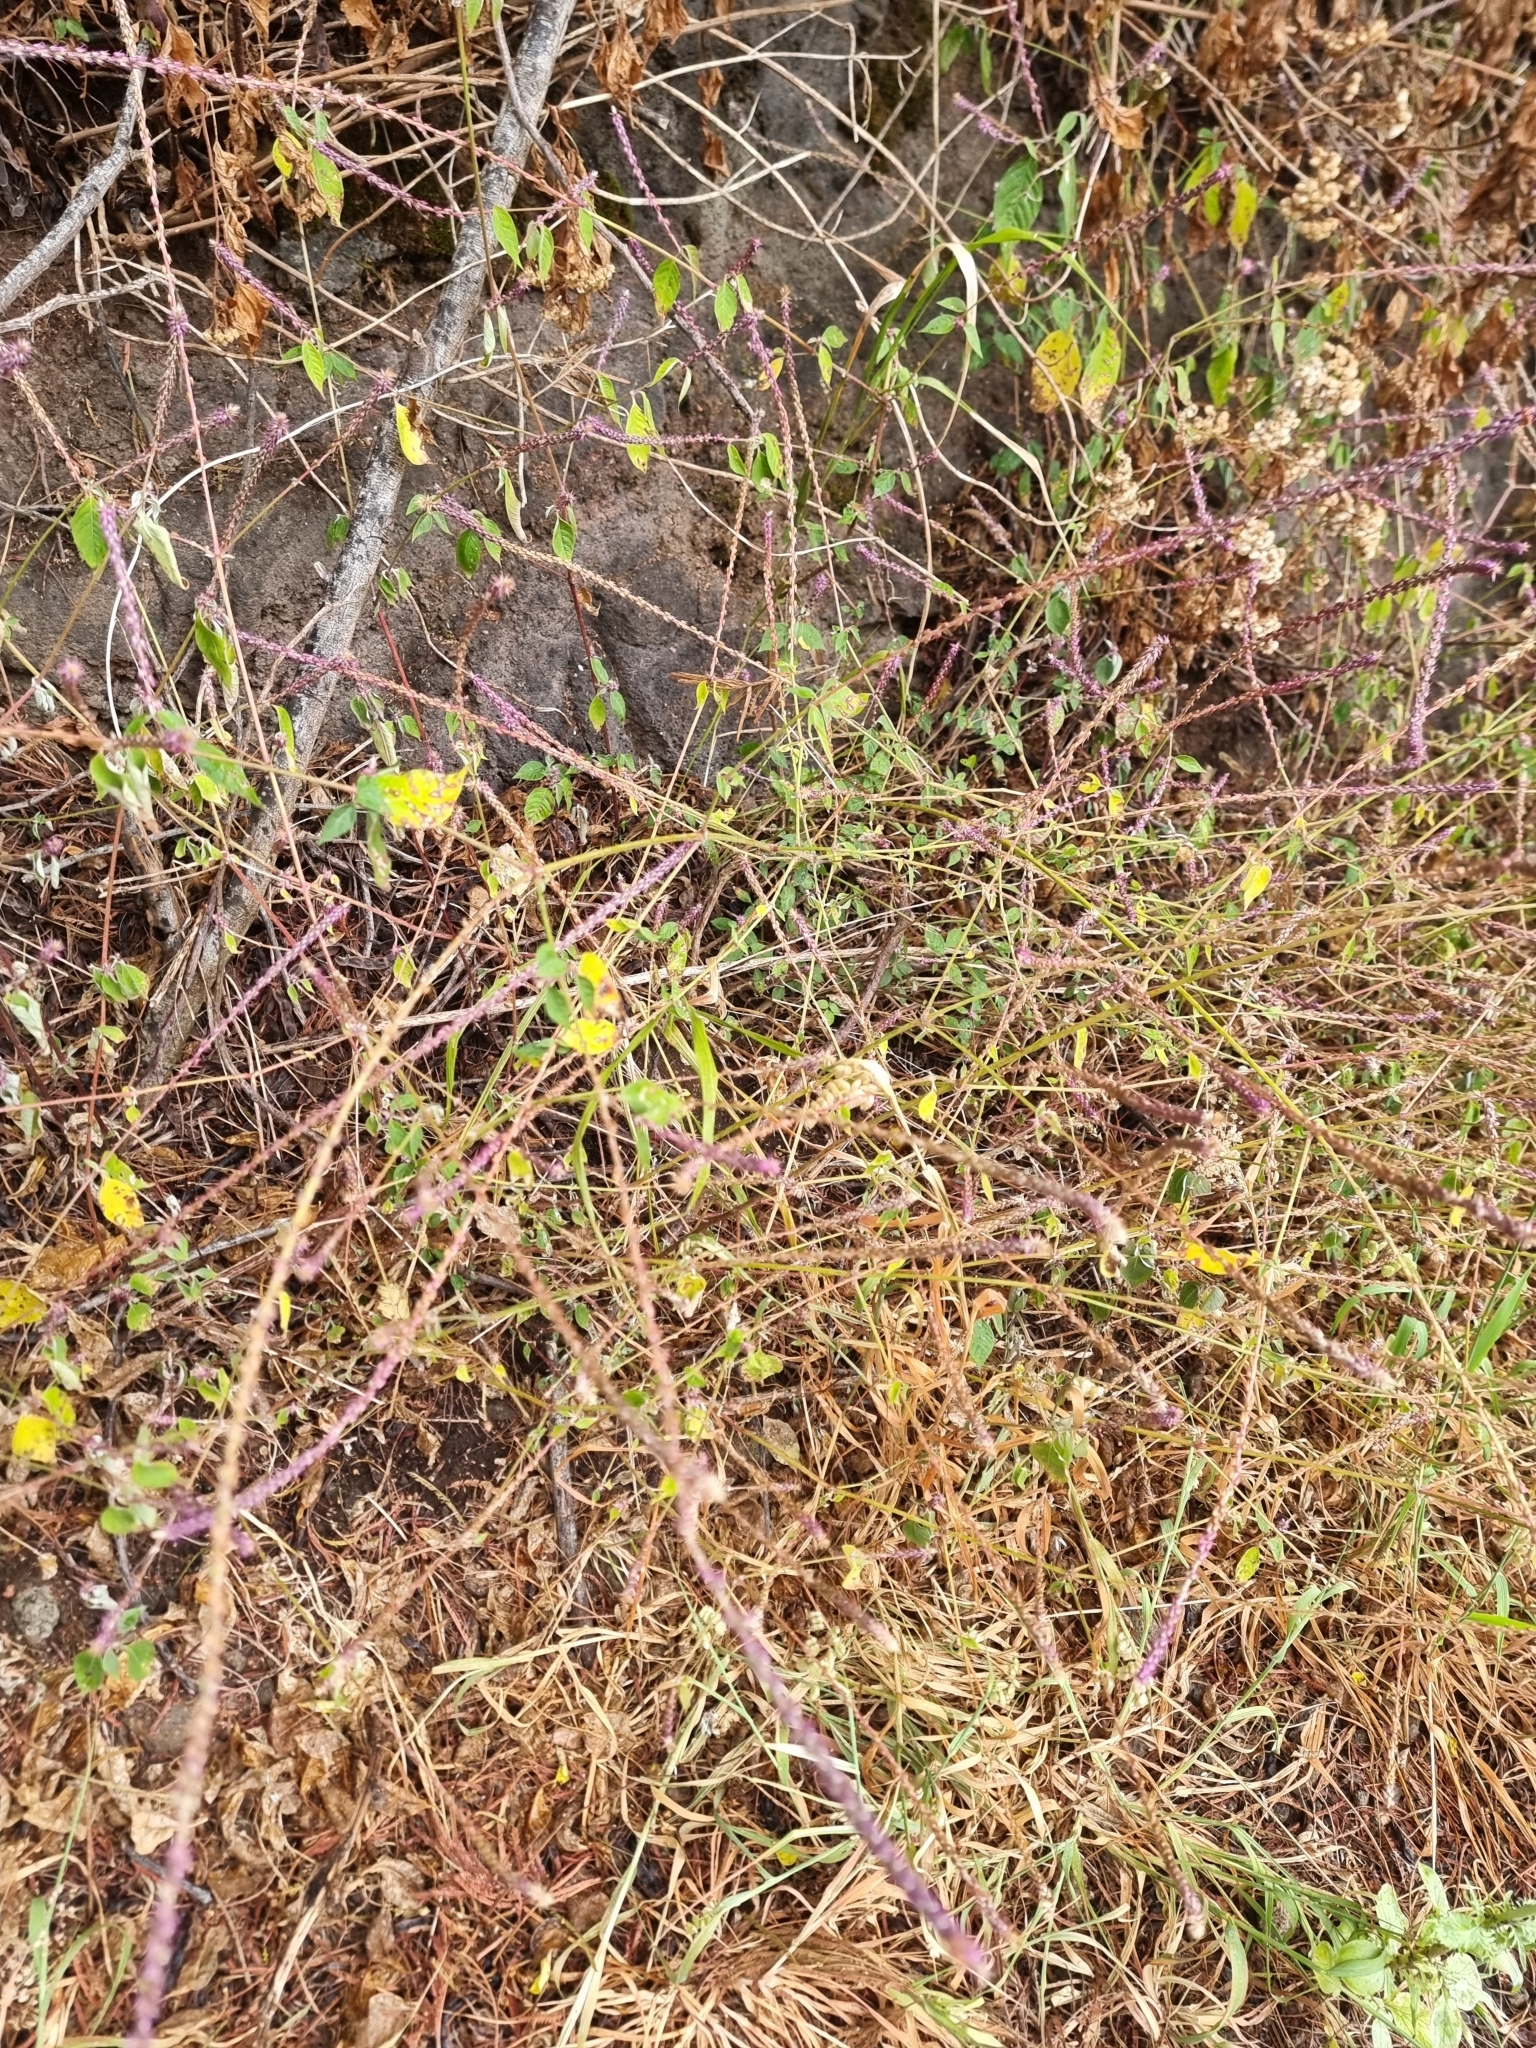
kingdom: Plantae
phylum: Tracheophyta
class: Magnoliopsida
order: Caryophyllales
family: Amaranthaceae
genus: Achyranthes
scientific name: Achyranthes aspera
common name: Devil's horsewhip
